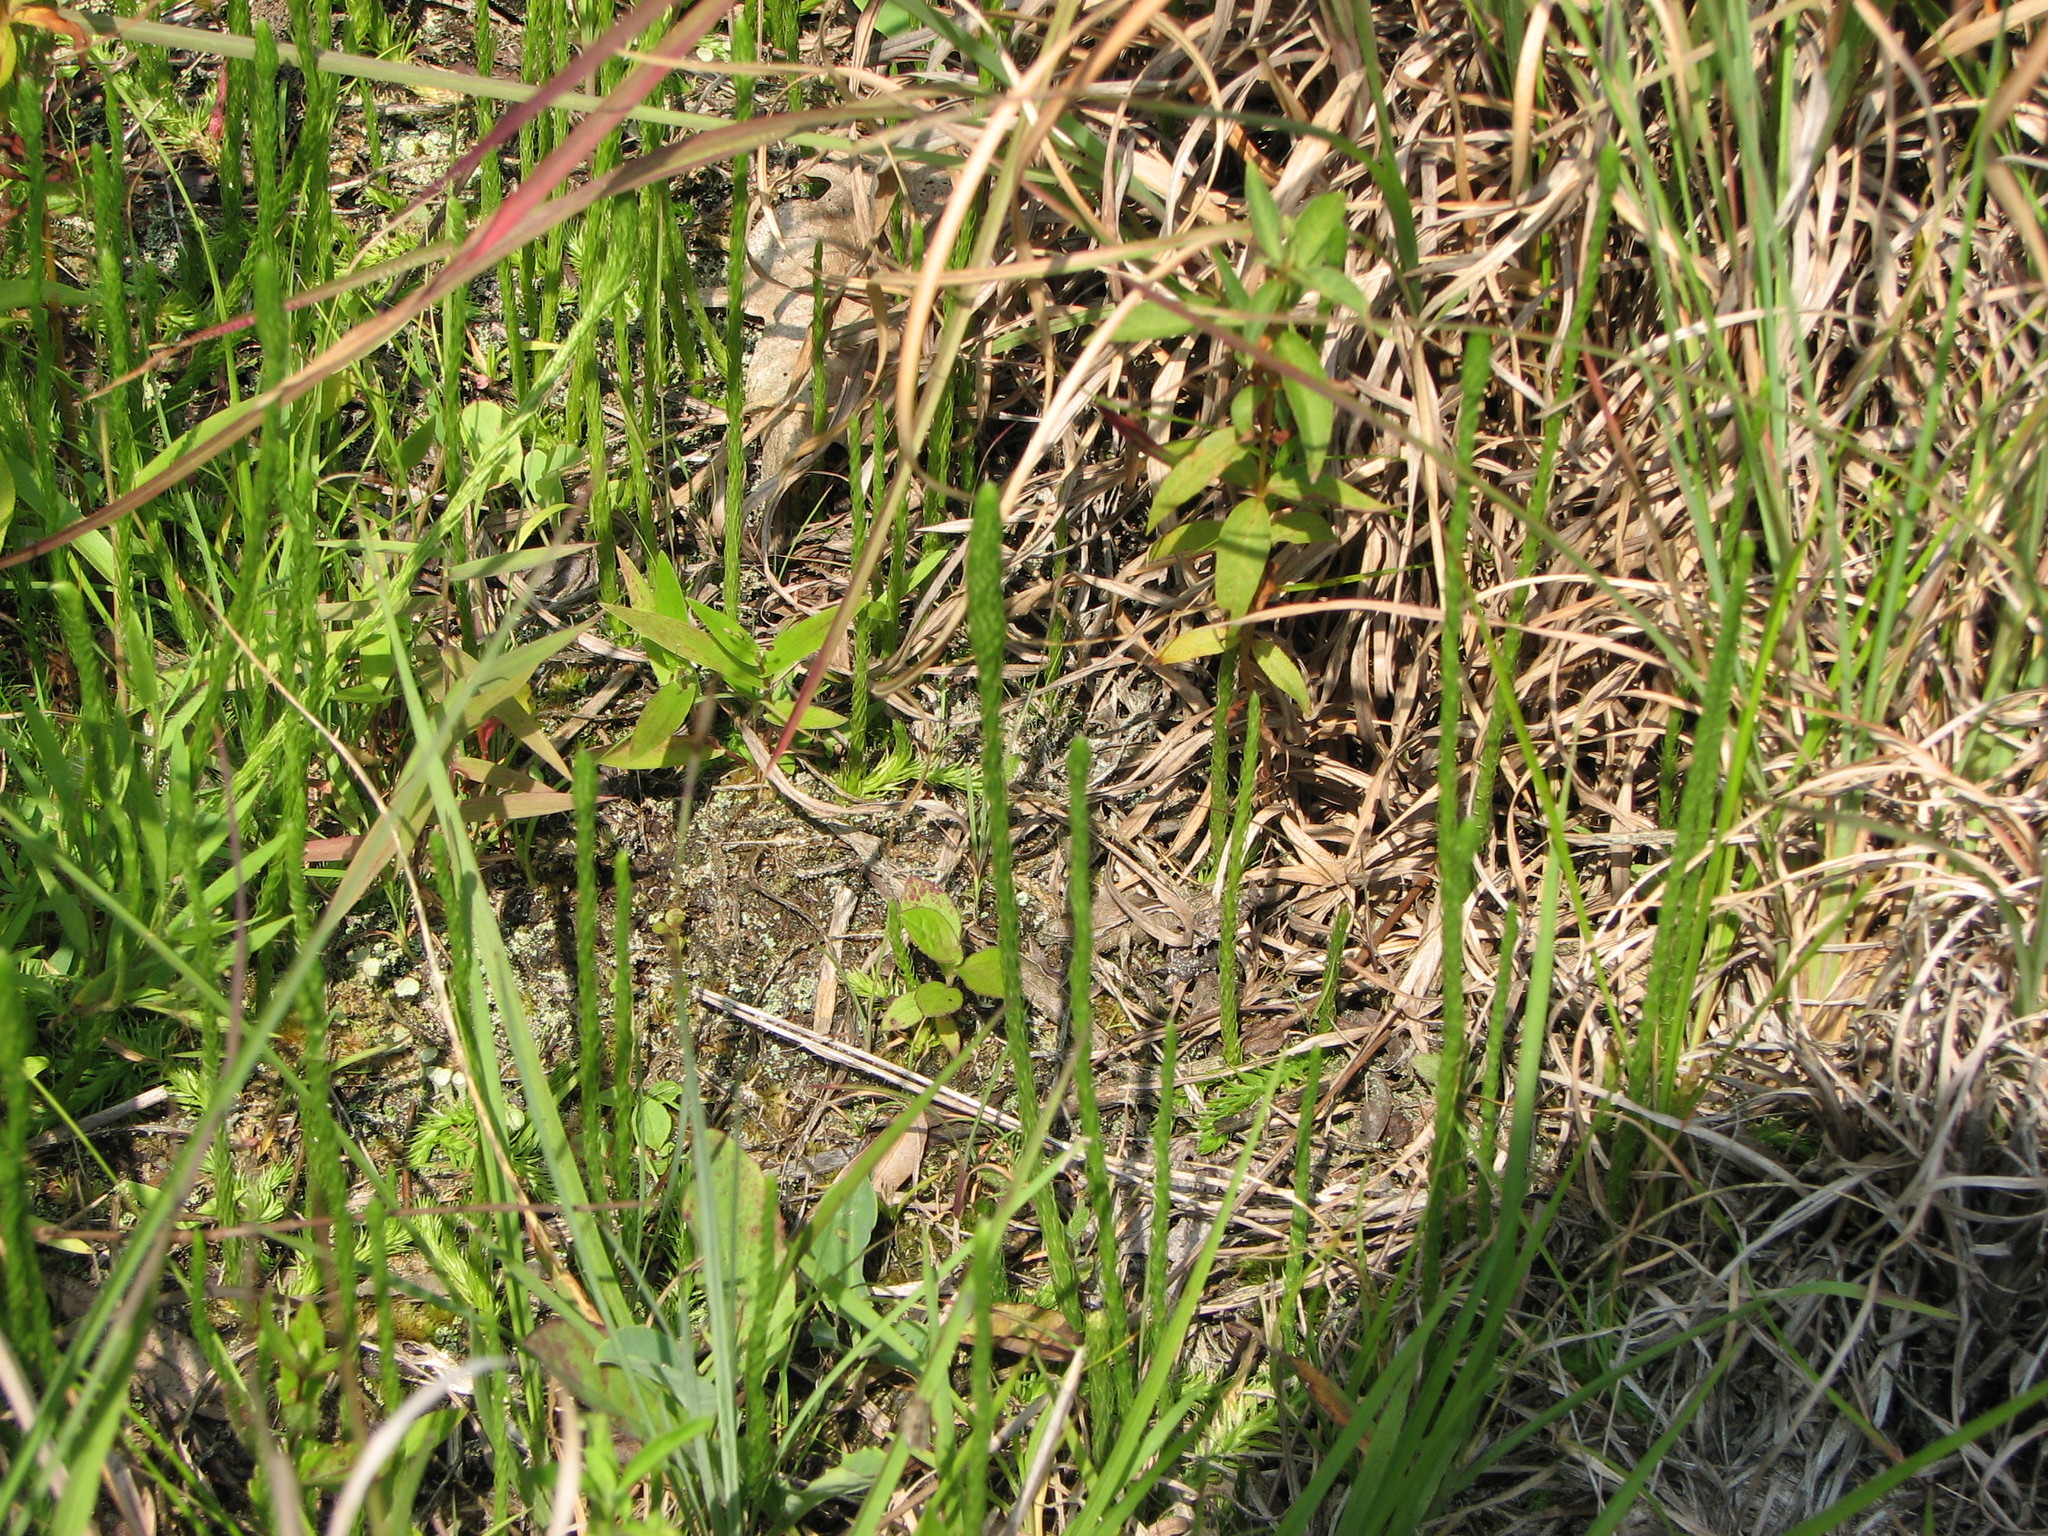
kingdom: Plantae
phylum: Tracheophyta
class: Lycopodiopsida
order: Lycopodiales
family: Lycopodiaceae
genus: Lycopodiella
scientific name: Lycopodiella appressa
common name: Appressed bog clubmoss
